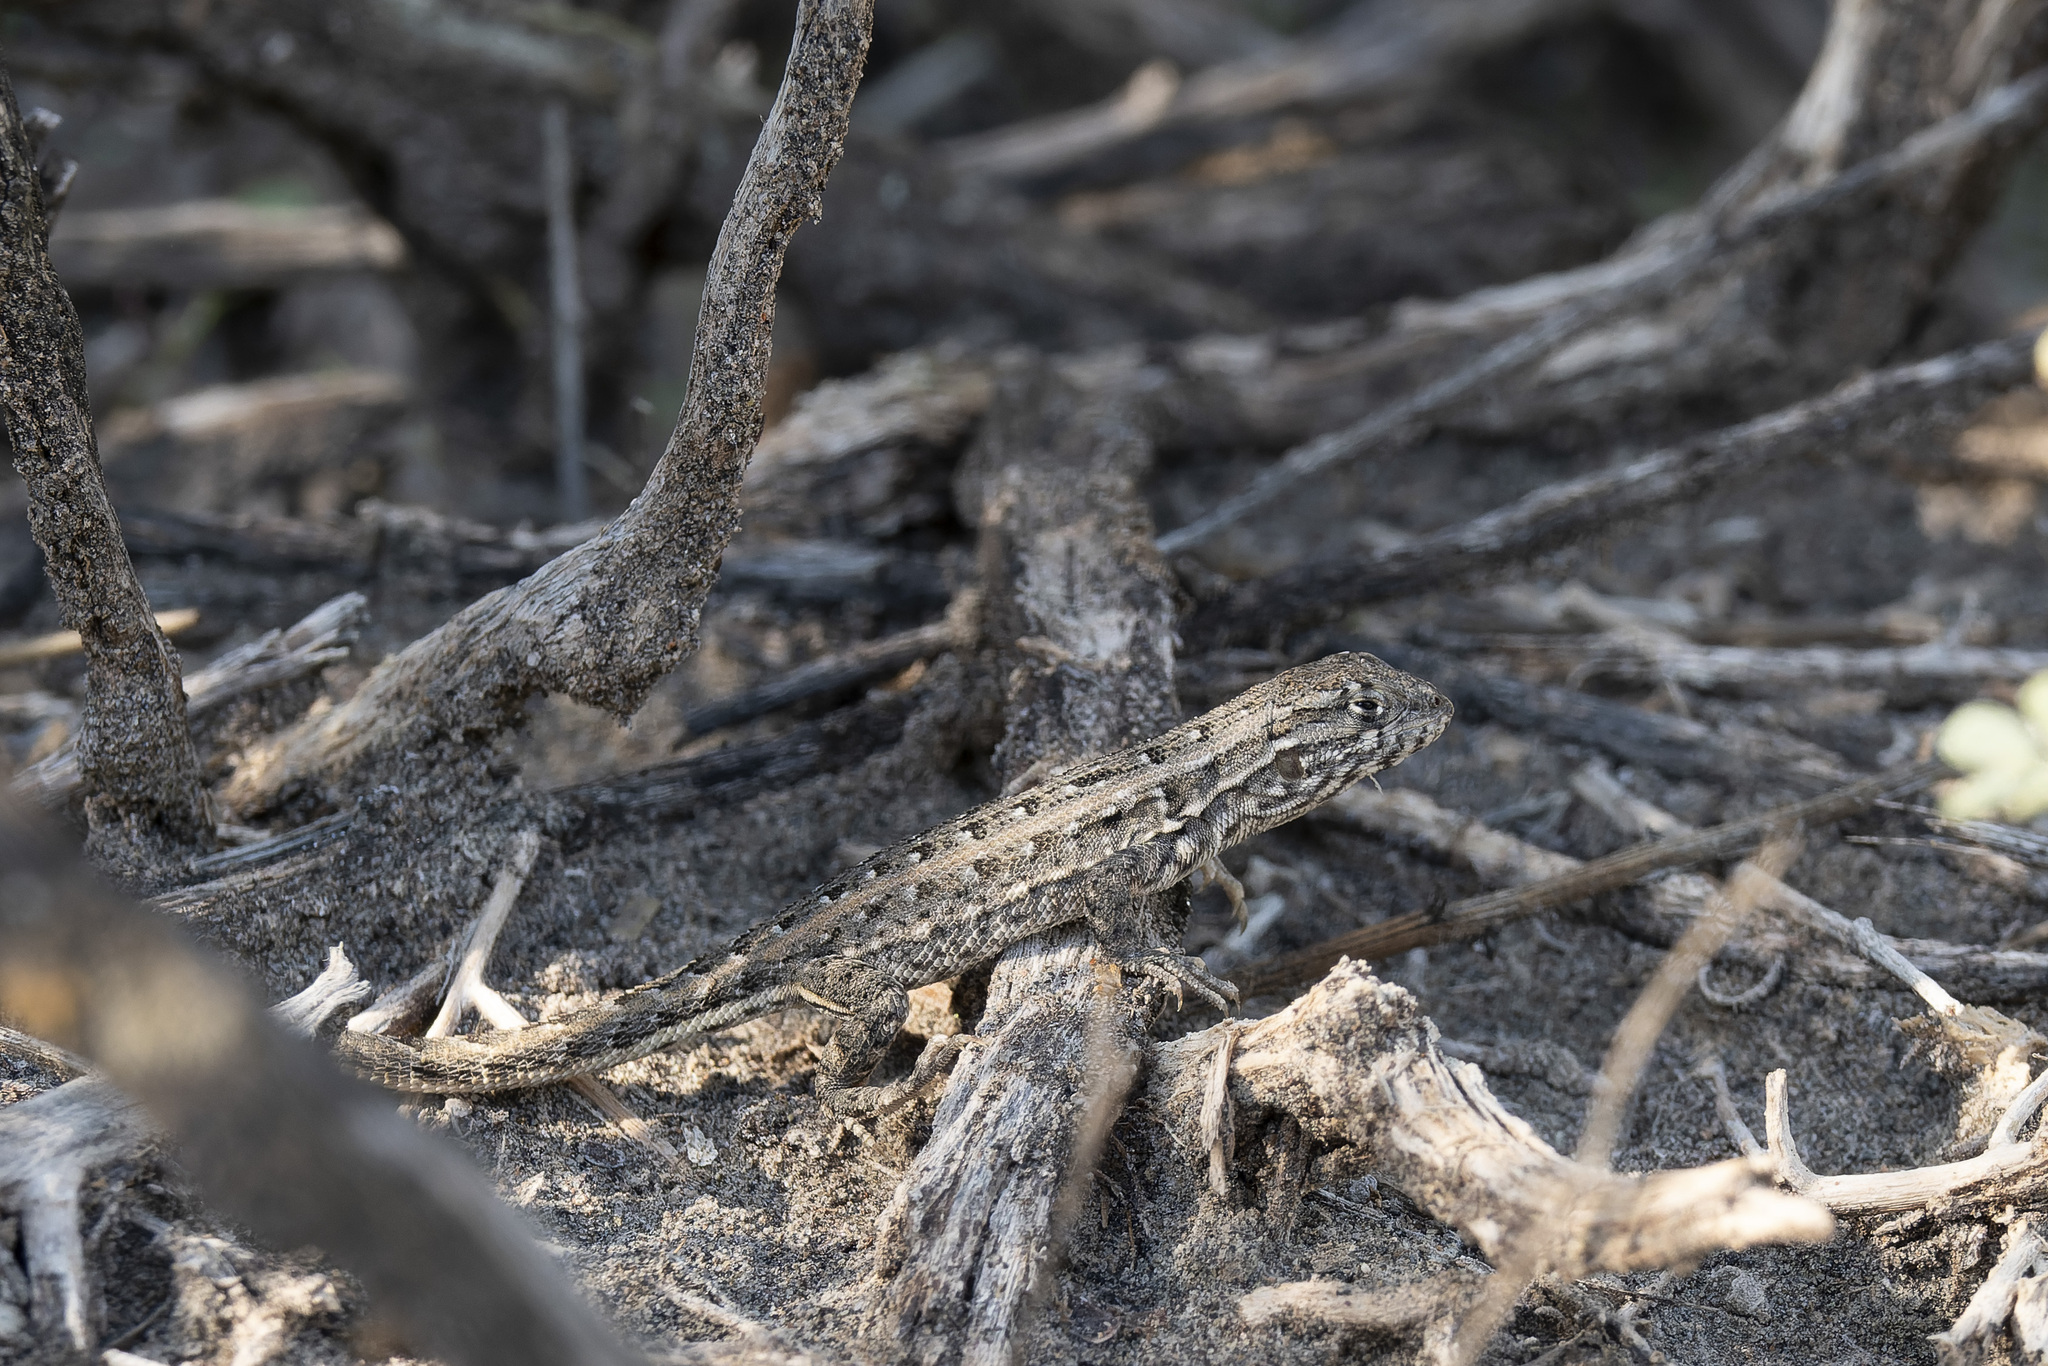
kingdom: Animalia
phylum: Chordata
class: Squamata
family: Liolaemidae
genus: Liolaemus
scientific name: Liolaemus darwinii
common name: Darwin's tree iguana
